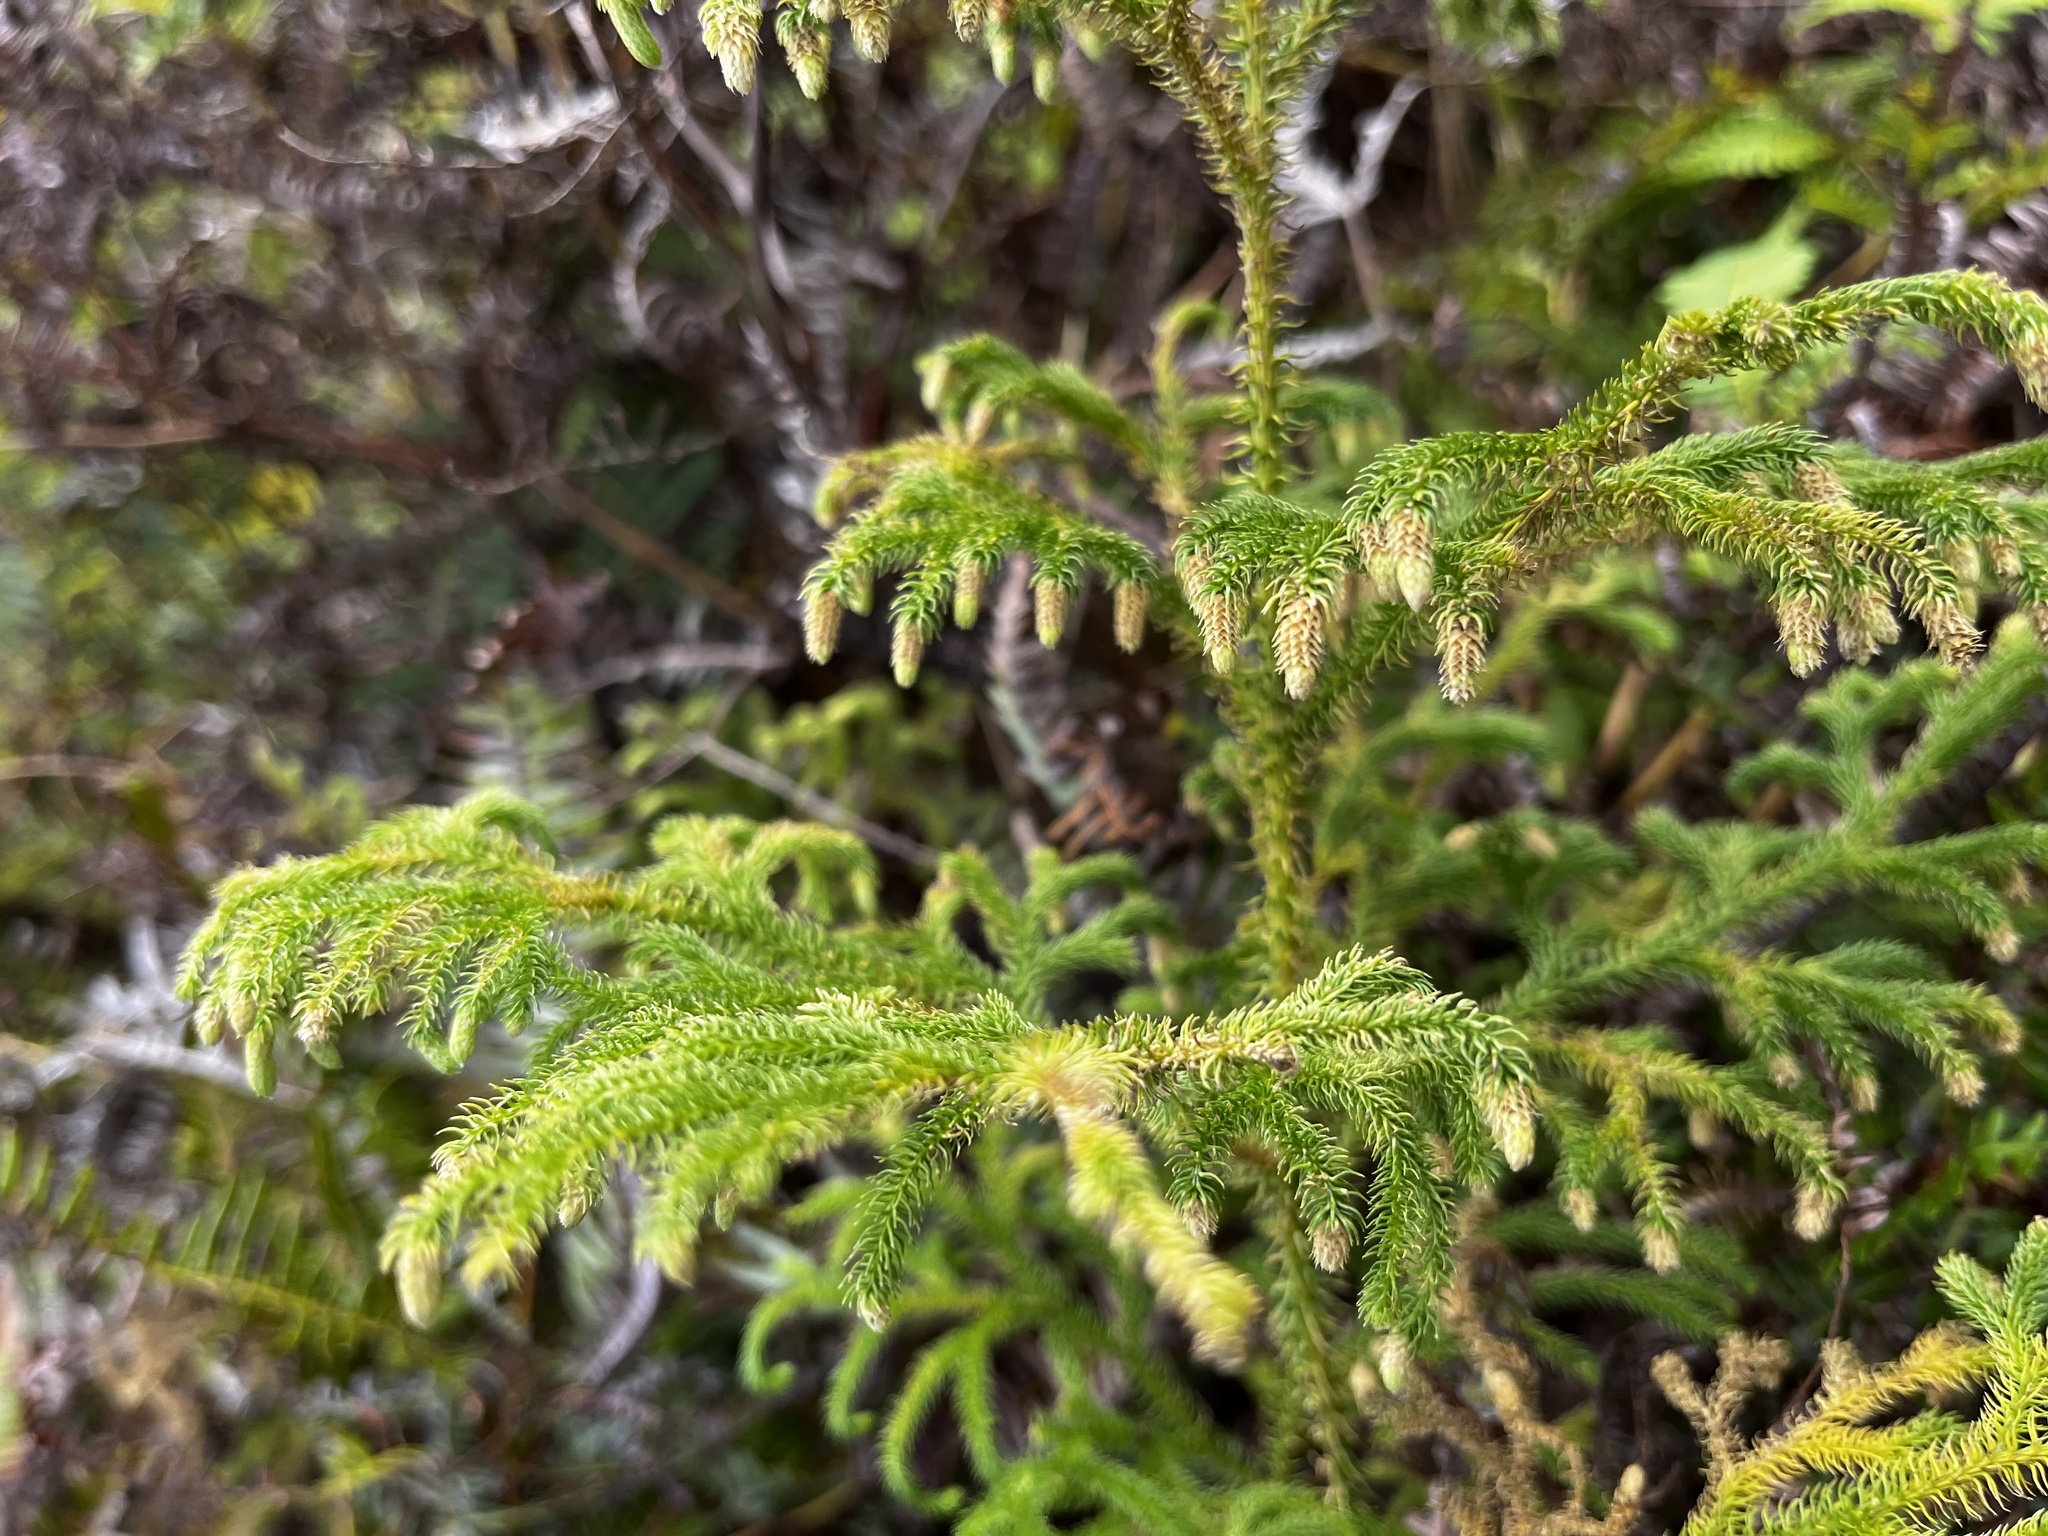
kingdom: Plantae
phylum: Tracheophyta
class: Lycopodiopsida
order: Lycopodiales
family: Lycopodiaceae
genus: Palhinhaea
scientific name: Palhinhaea cernua
